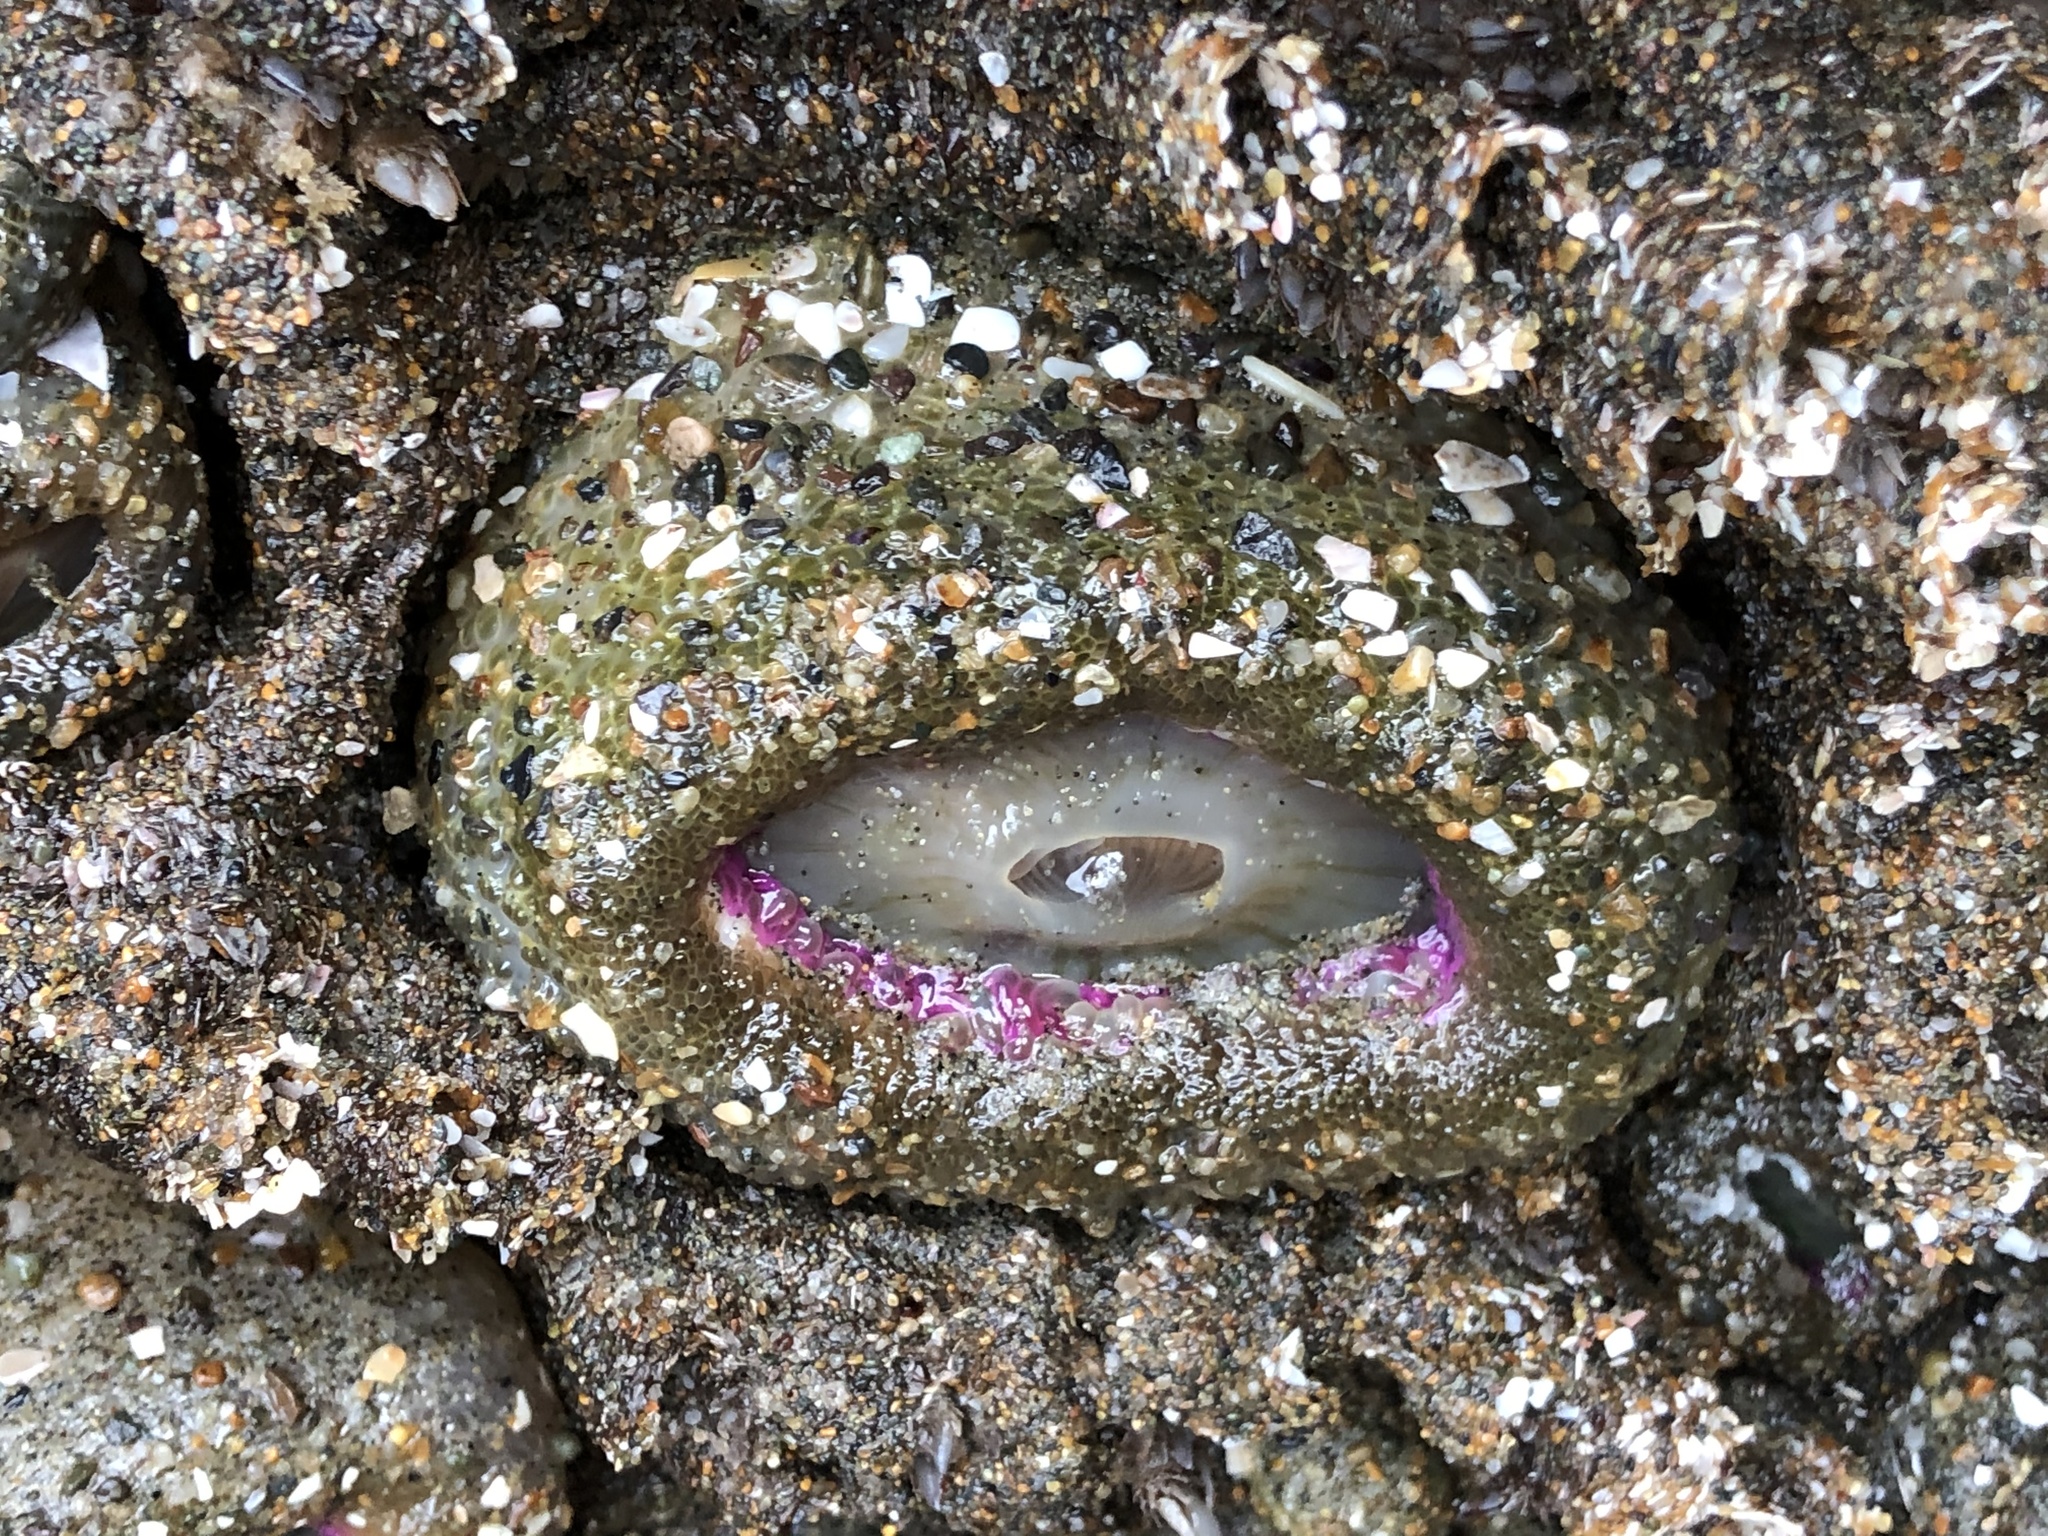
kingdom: Animalia
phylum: Cnidaria
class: Anthozoa
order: Actiniaria
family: Actiniidae
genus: Anthopleura
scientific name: Anthopleura elegantissima
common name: Clonal anemone
